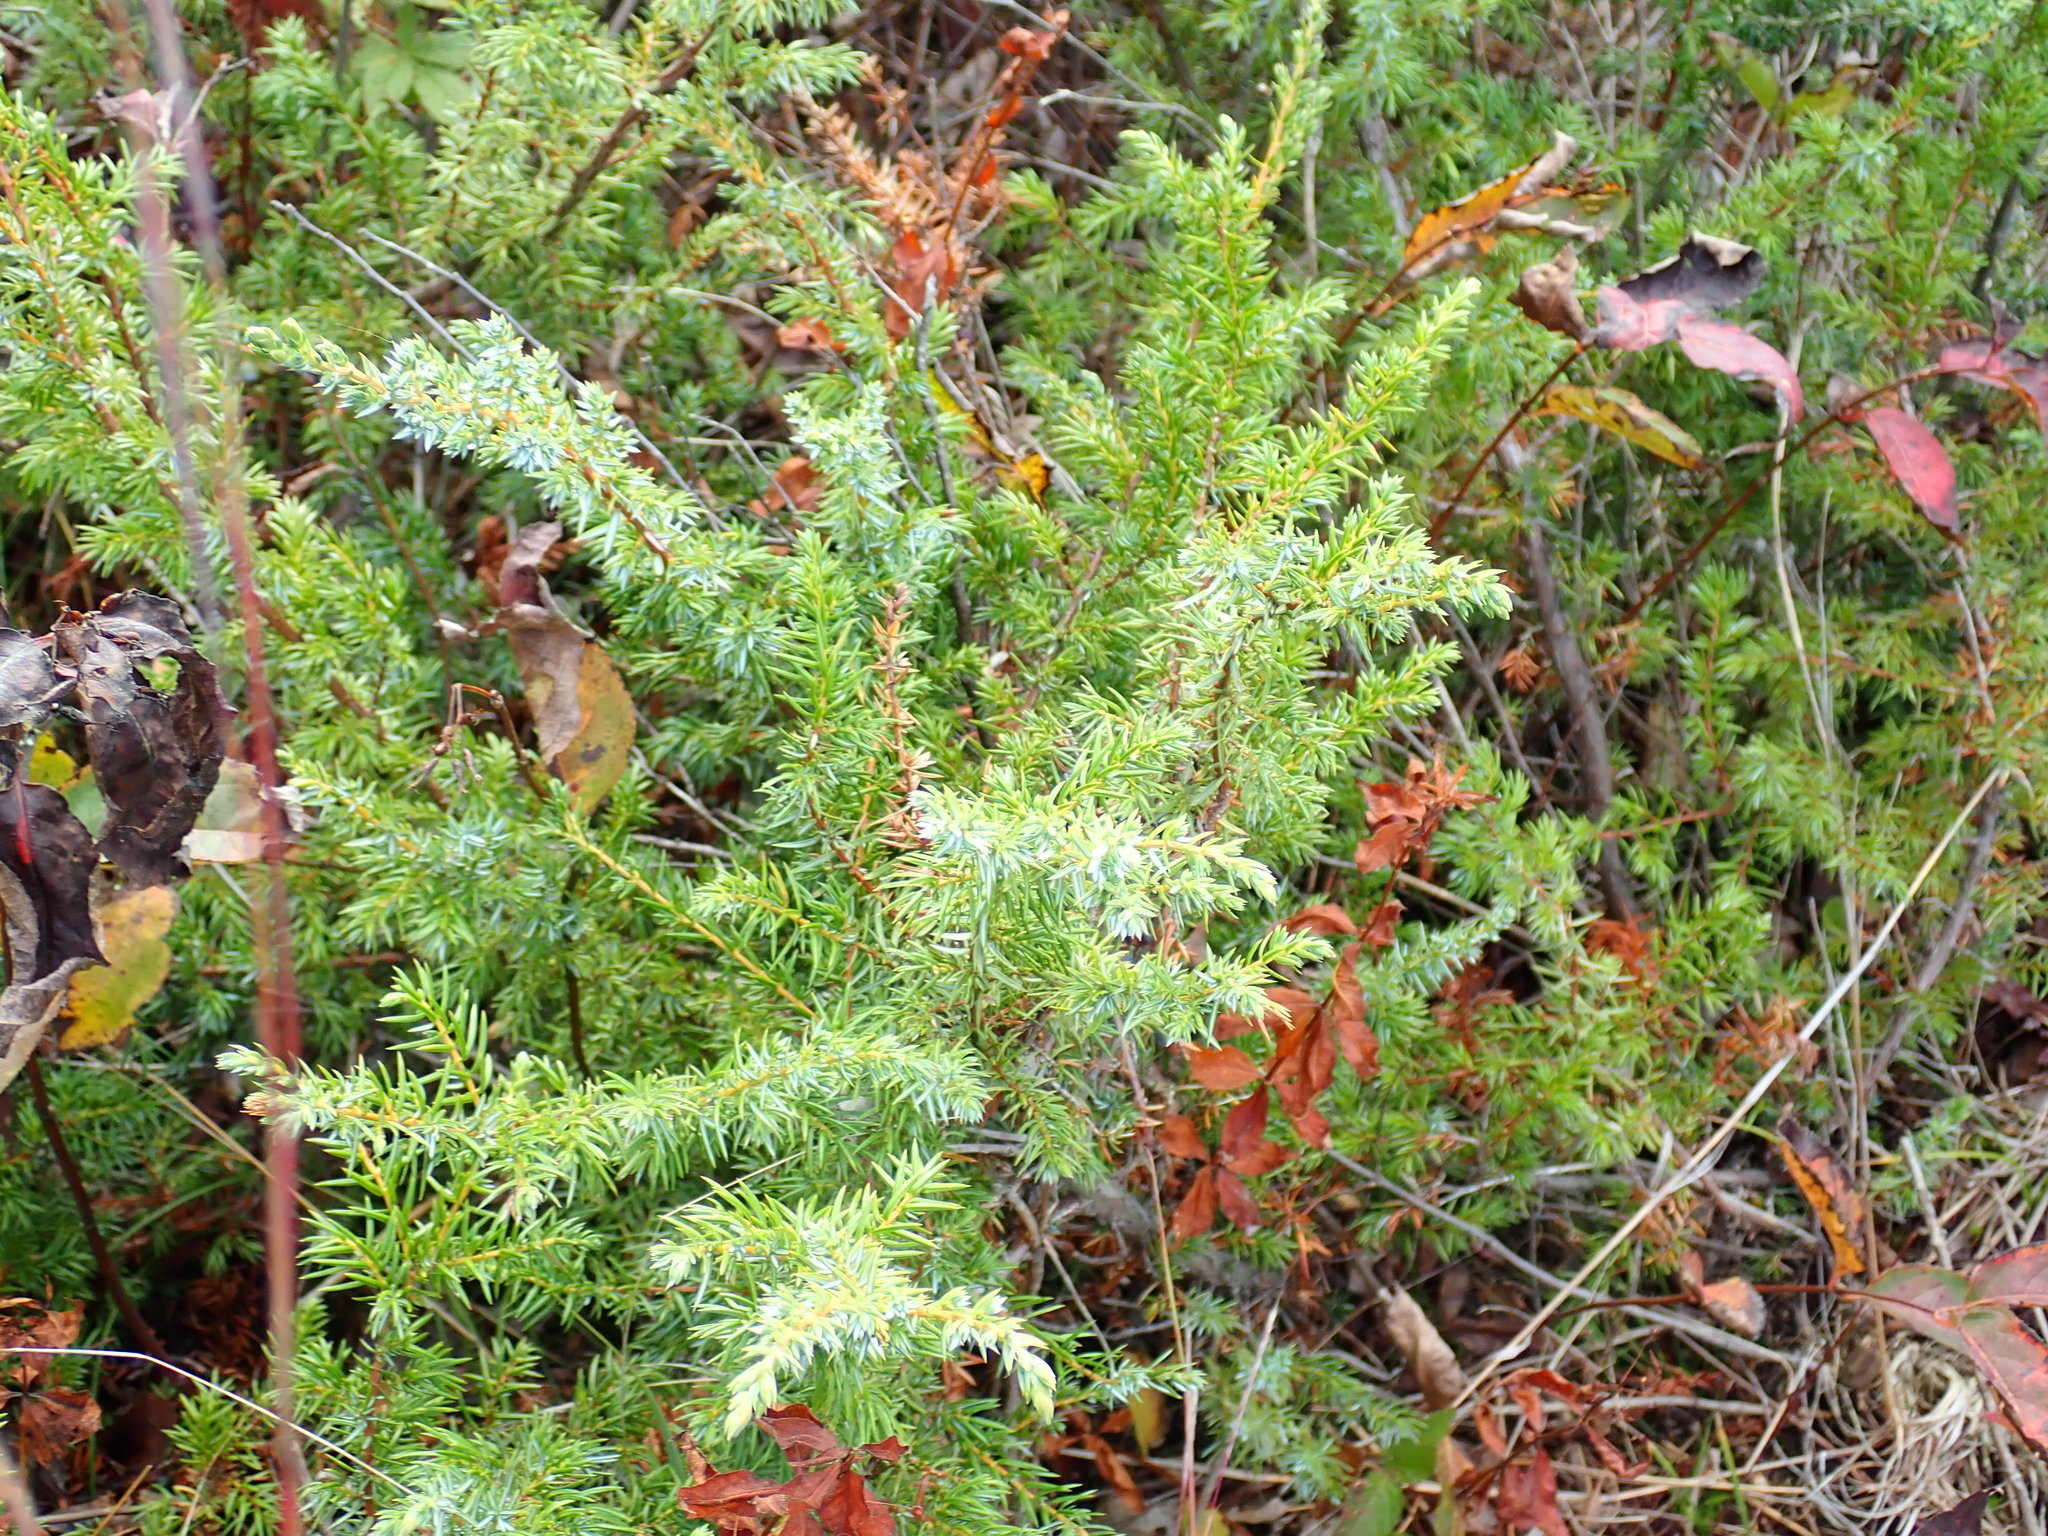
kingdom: Plantae
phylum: Tracheophyta
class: Pinopsida
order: Pinales
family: Cupressaceae
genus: Juniperus
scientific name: Juniperus communis
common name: Common juniper
